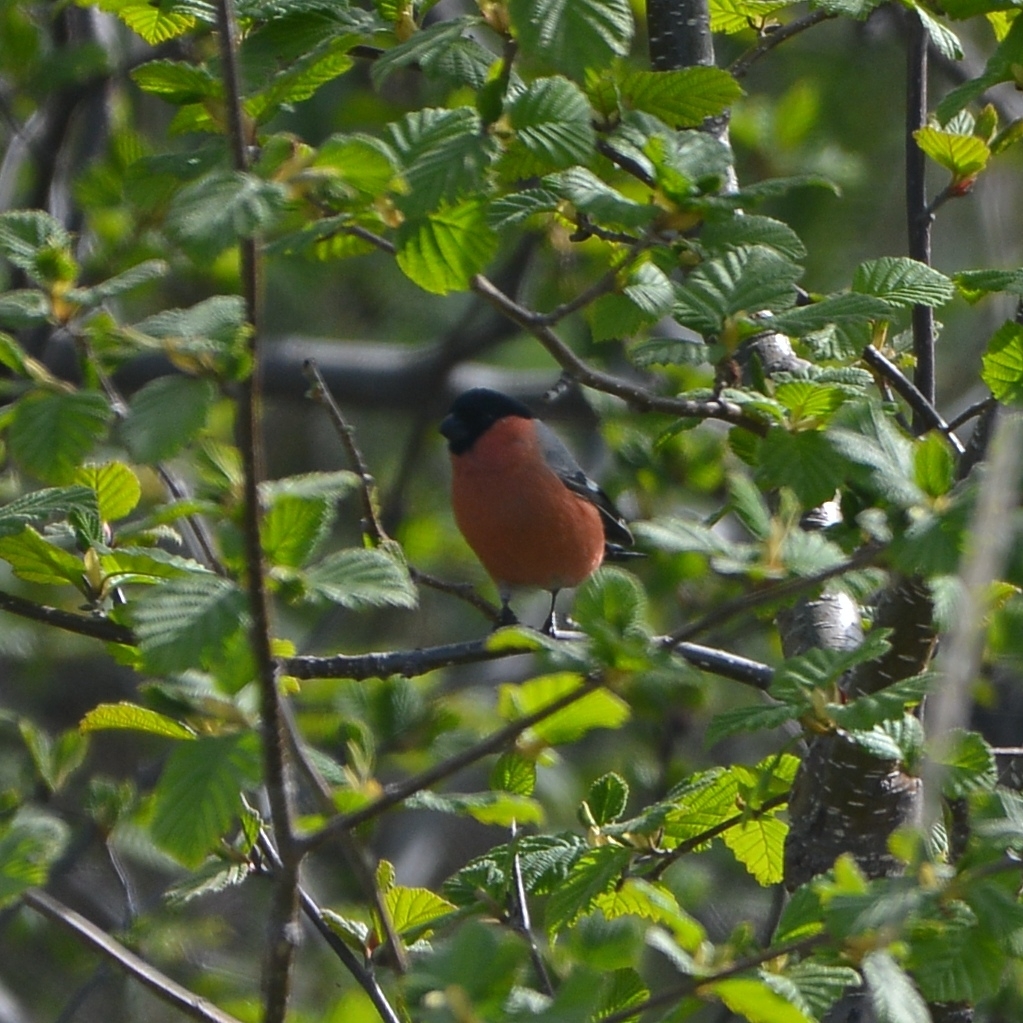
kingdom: Animalia
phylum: Chordata
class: Aves
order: Passeriformes
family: Fringillidae
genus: Pyrrhula
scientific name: Pyrrhula pyrrhula
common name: Eurasian bullfinch
